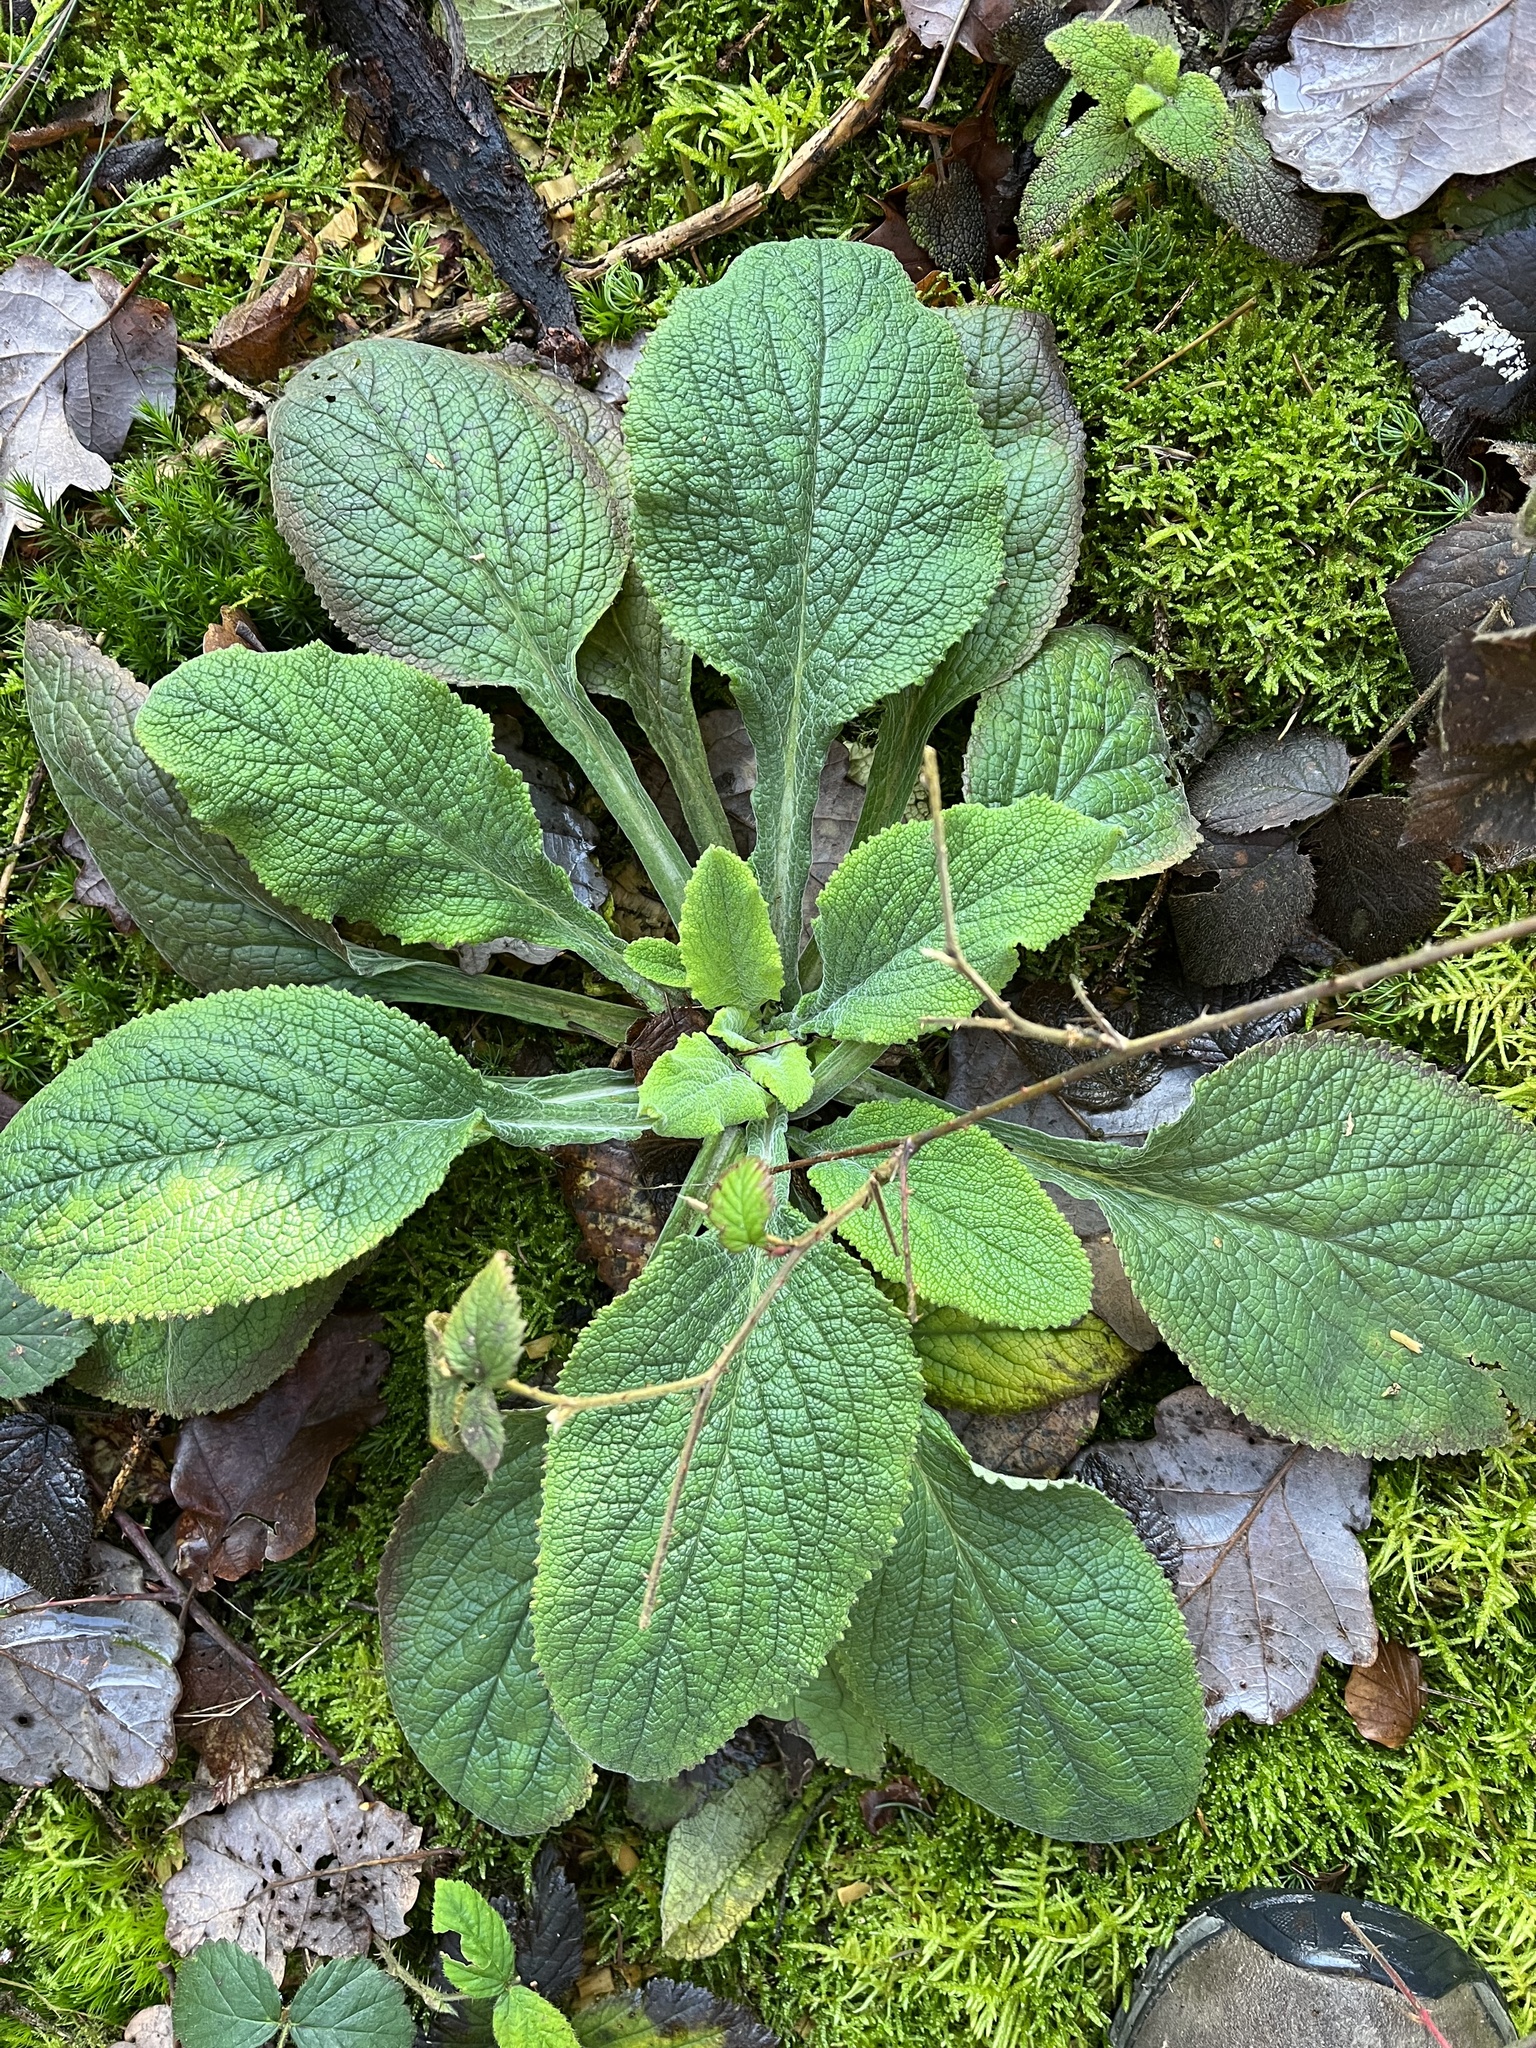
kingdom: Plantae
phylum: Tracheophyta
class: Magnoliopsida
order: Lamiales
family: Plantaginaceae
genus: Digitalis
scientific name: Digitalis purpurea
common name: Foxglove
